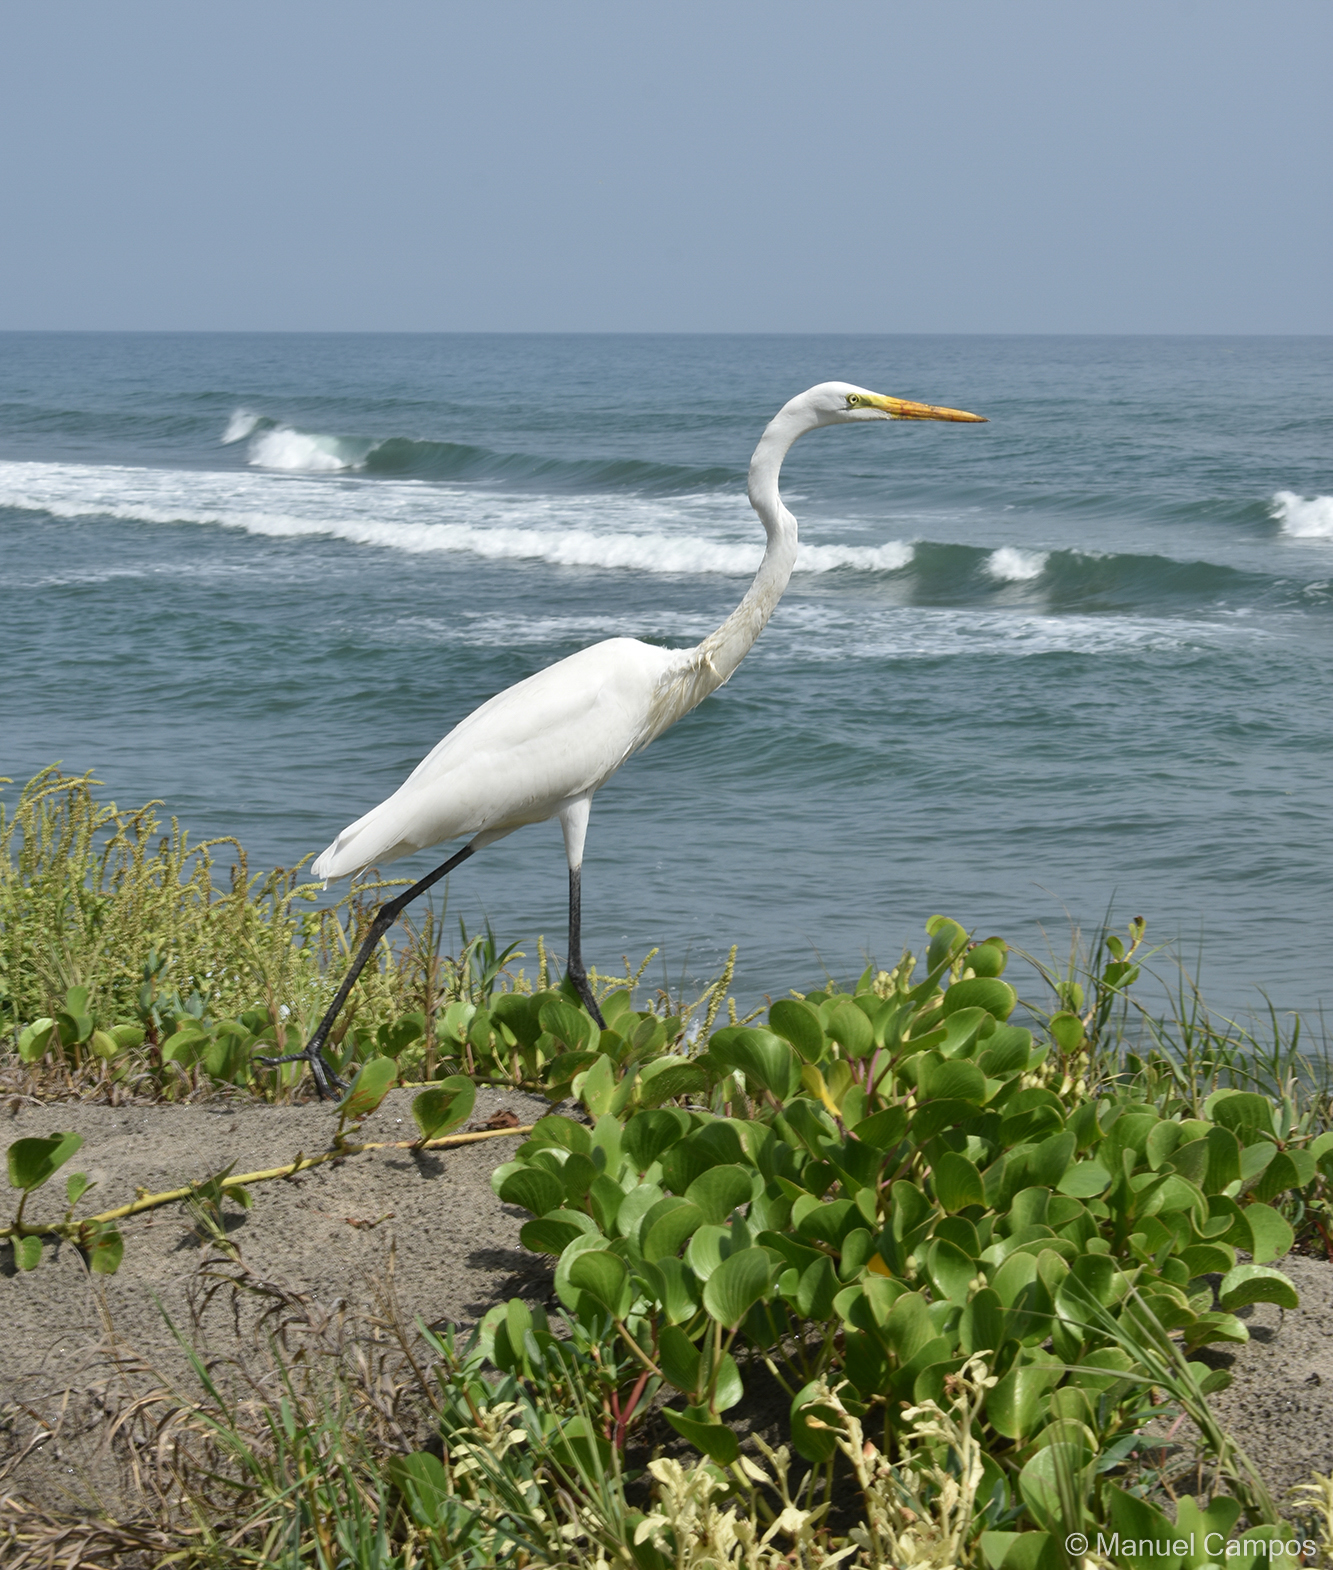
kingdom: Animalia
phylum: Chordata
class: Aves
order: Pelecaniformes
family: Ardeidae
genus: Ardea
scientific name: Ardea alba
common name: Great egret
